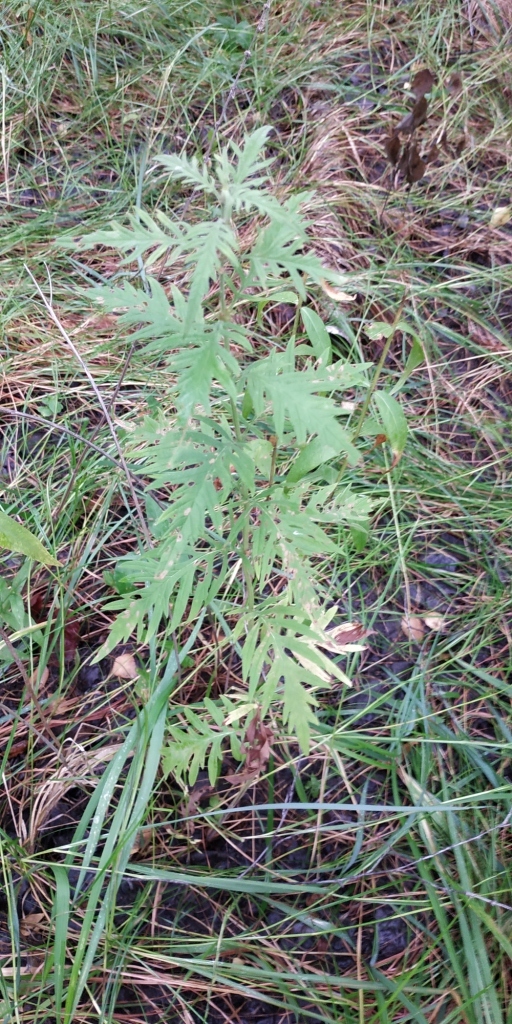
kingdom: Plantae
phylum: Tracheophyta
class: Magnoliopsida
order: Lamiales
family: Lamiaceae
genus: Lycopus
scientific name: Lycopus exaltatus
